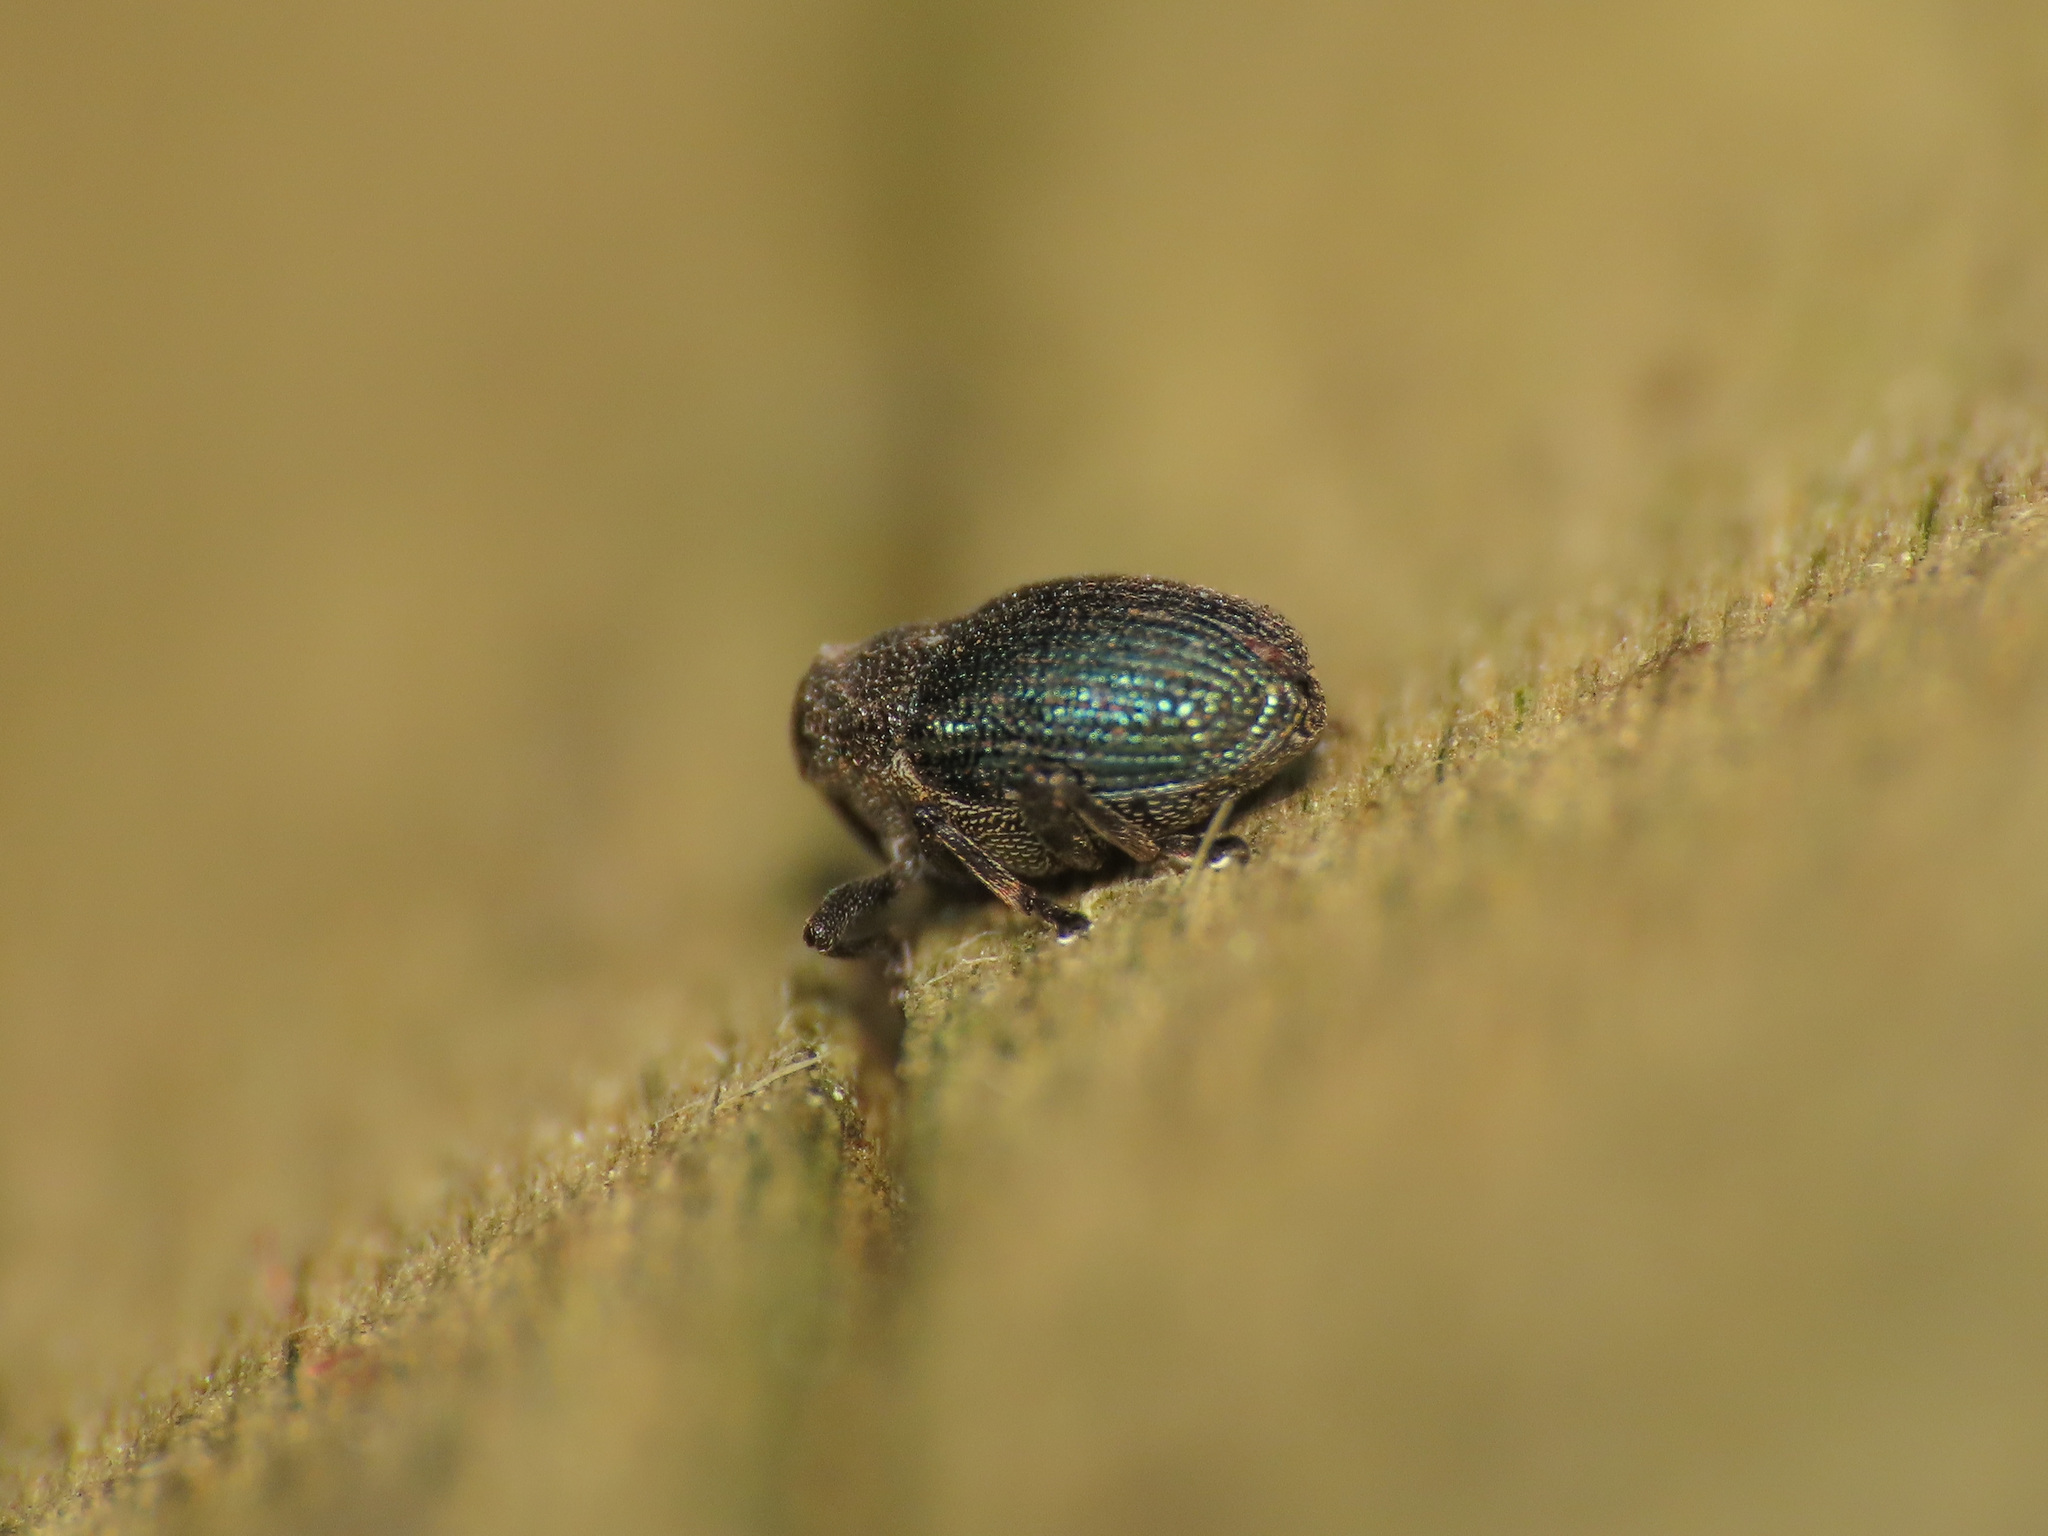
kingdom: Animalia
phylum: Arthropoda
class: Insecta
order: Coleoptera
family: Curculionidae
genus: Ceutorhynchus
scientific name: Ceutorhynchus erysimi
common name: Weevil
